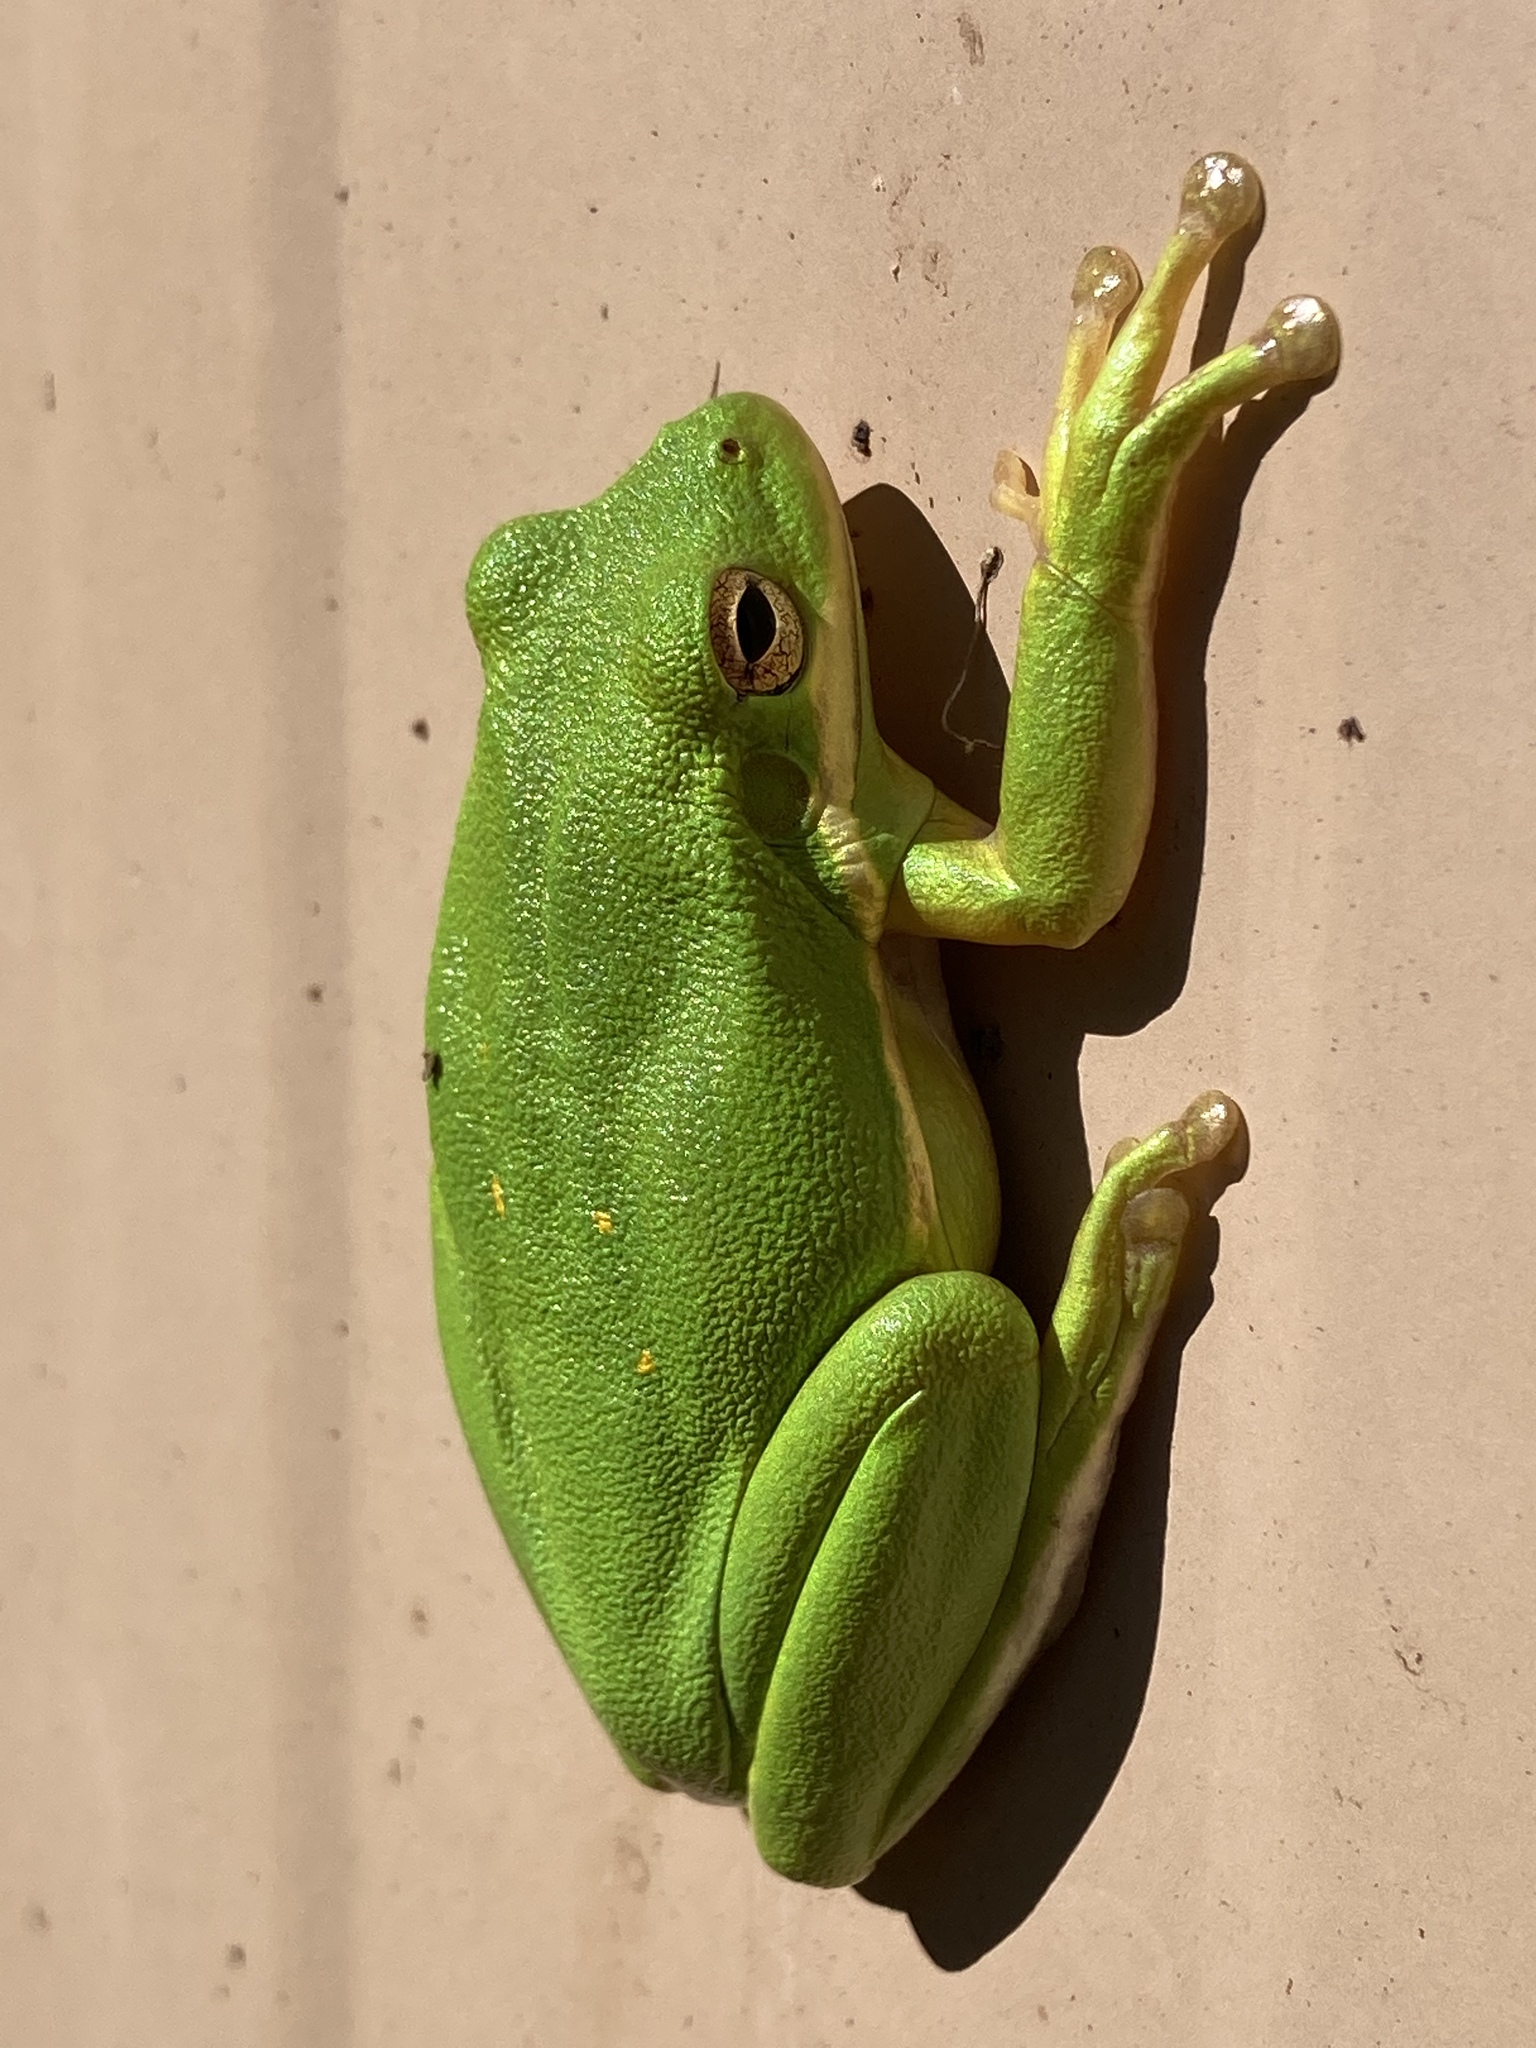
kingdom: Animalia
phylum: Chordata
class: Amphibia
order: Anura
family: Hylidae
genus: Dryophytes
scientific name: Dryophytes cinereus
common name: Green treefrog
